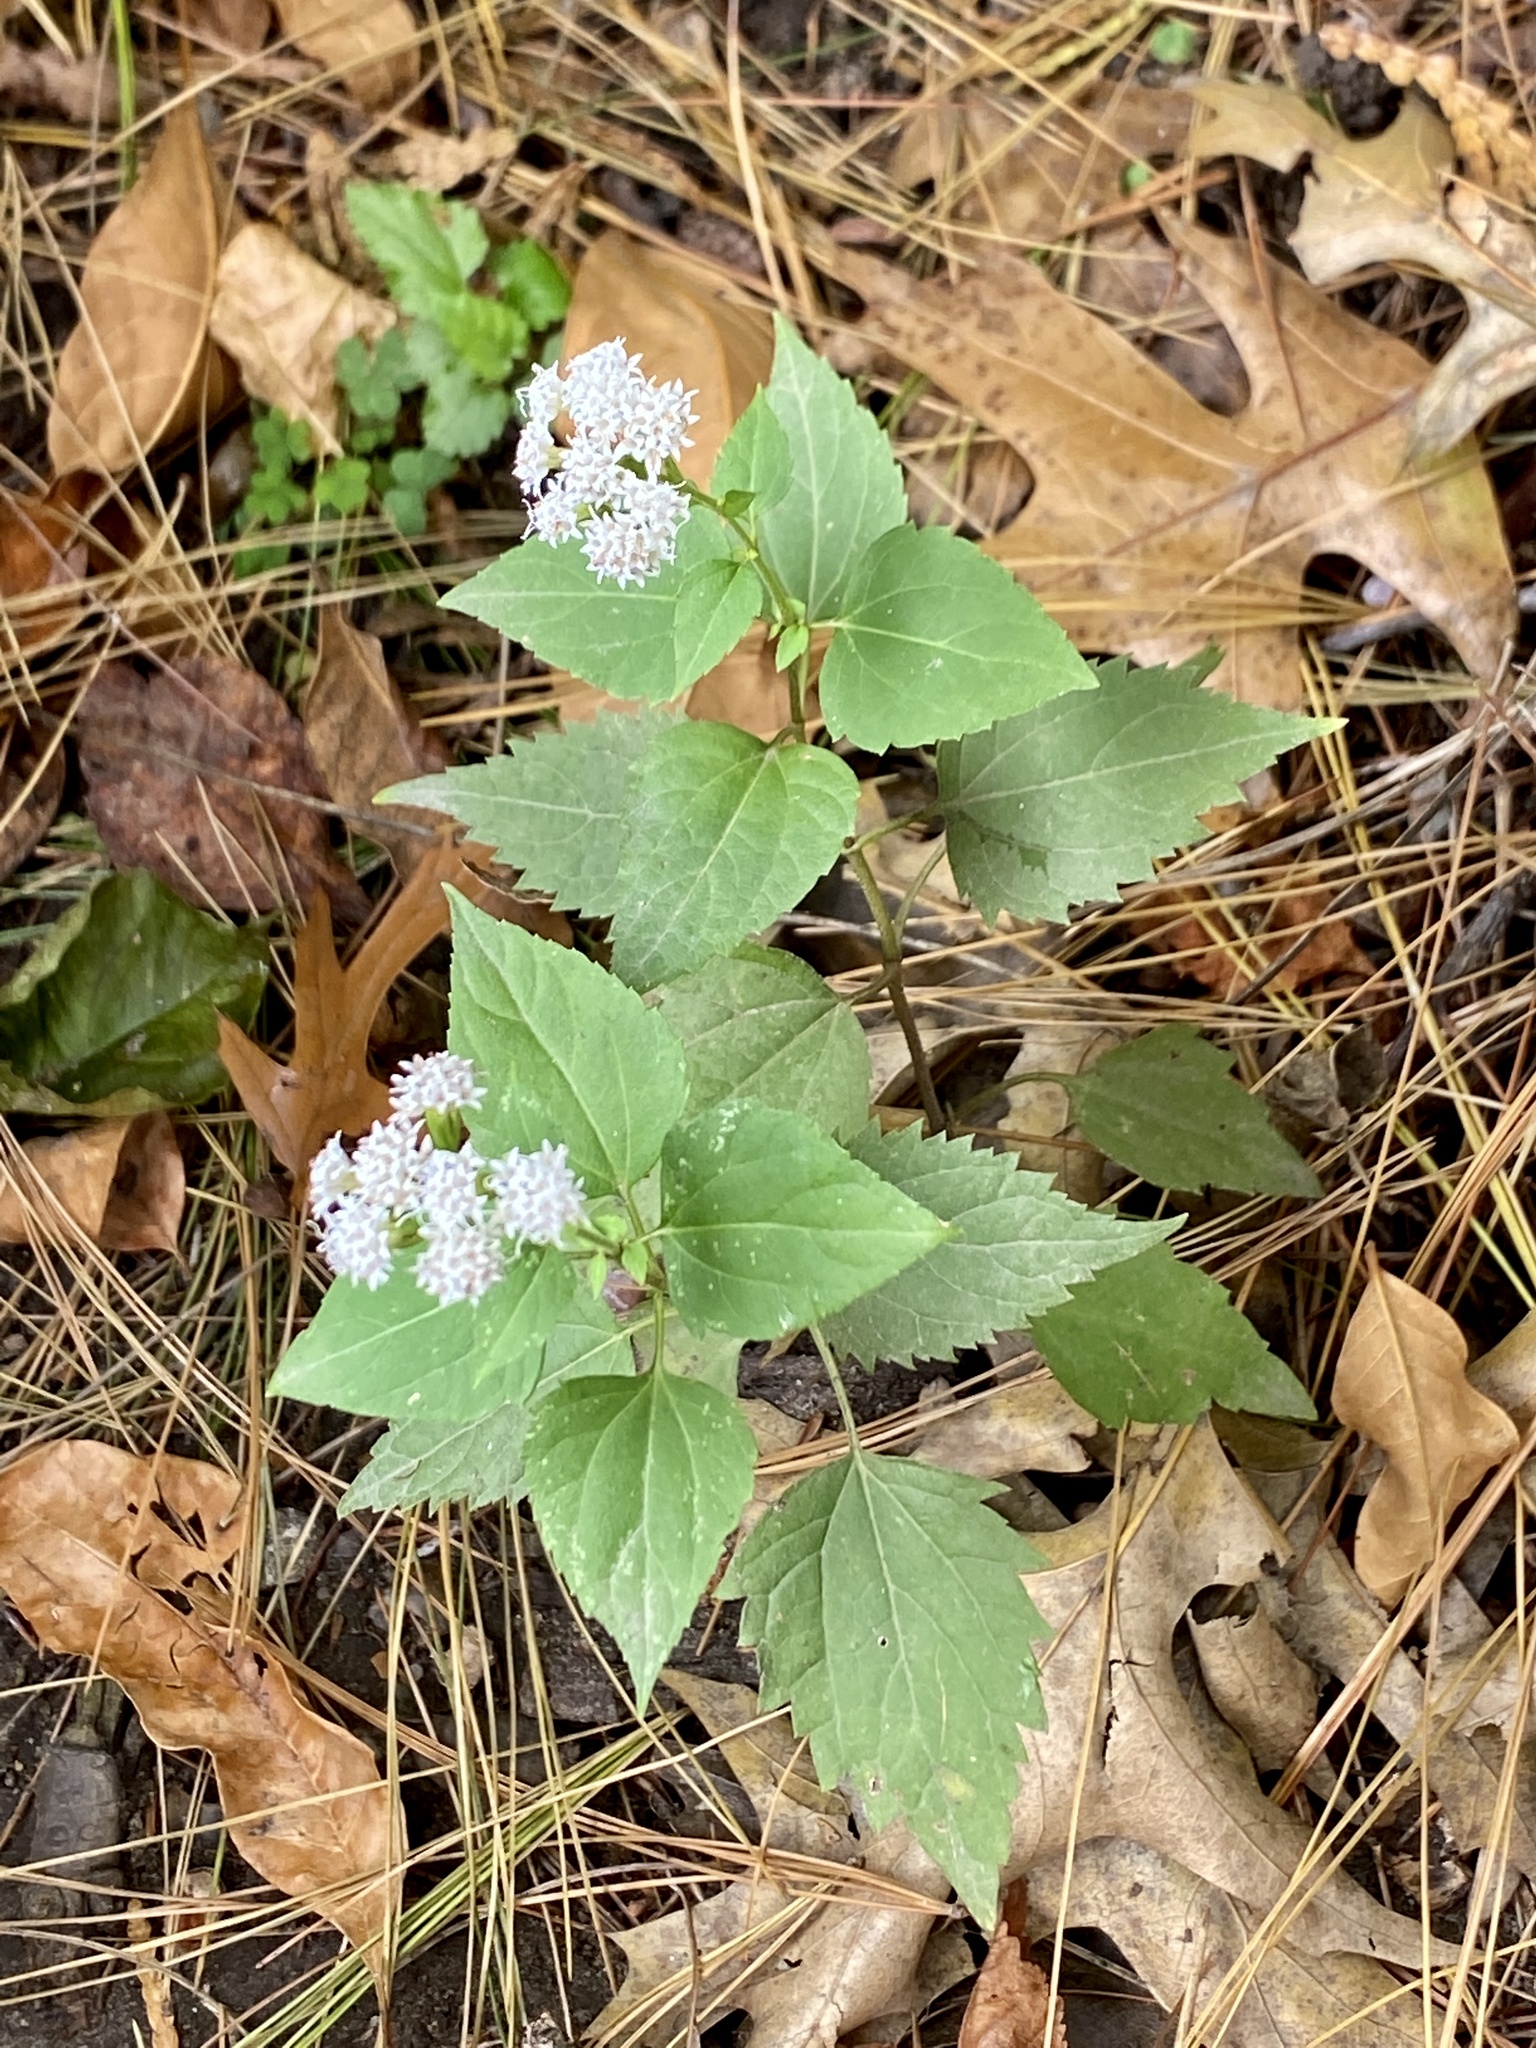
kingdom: Plantae
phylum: Tracheophyta
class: Magnoliopsida
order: Asterales
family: Asteraceae
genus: Ageratina
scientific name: Ageratina altissima
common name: White snakeroot
